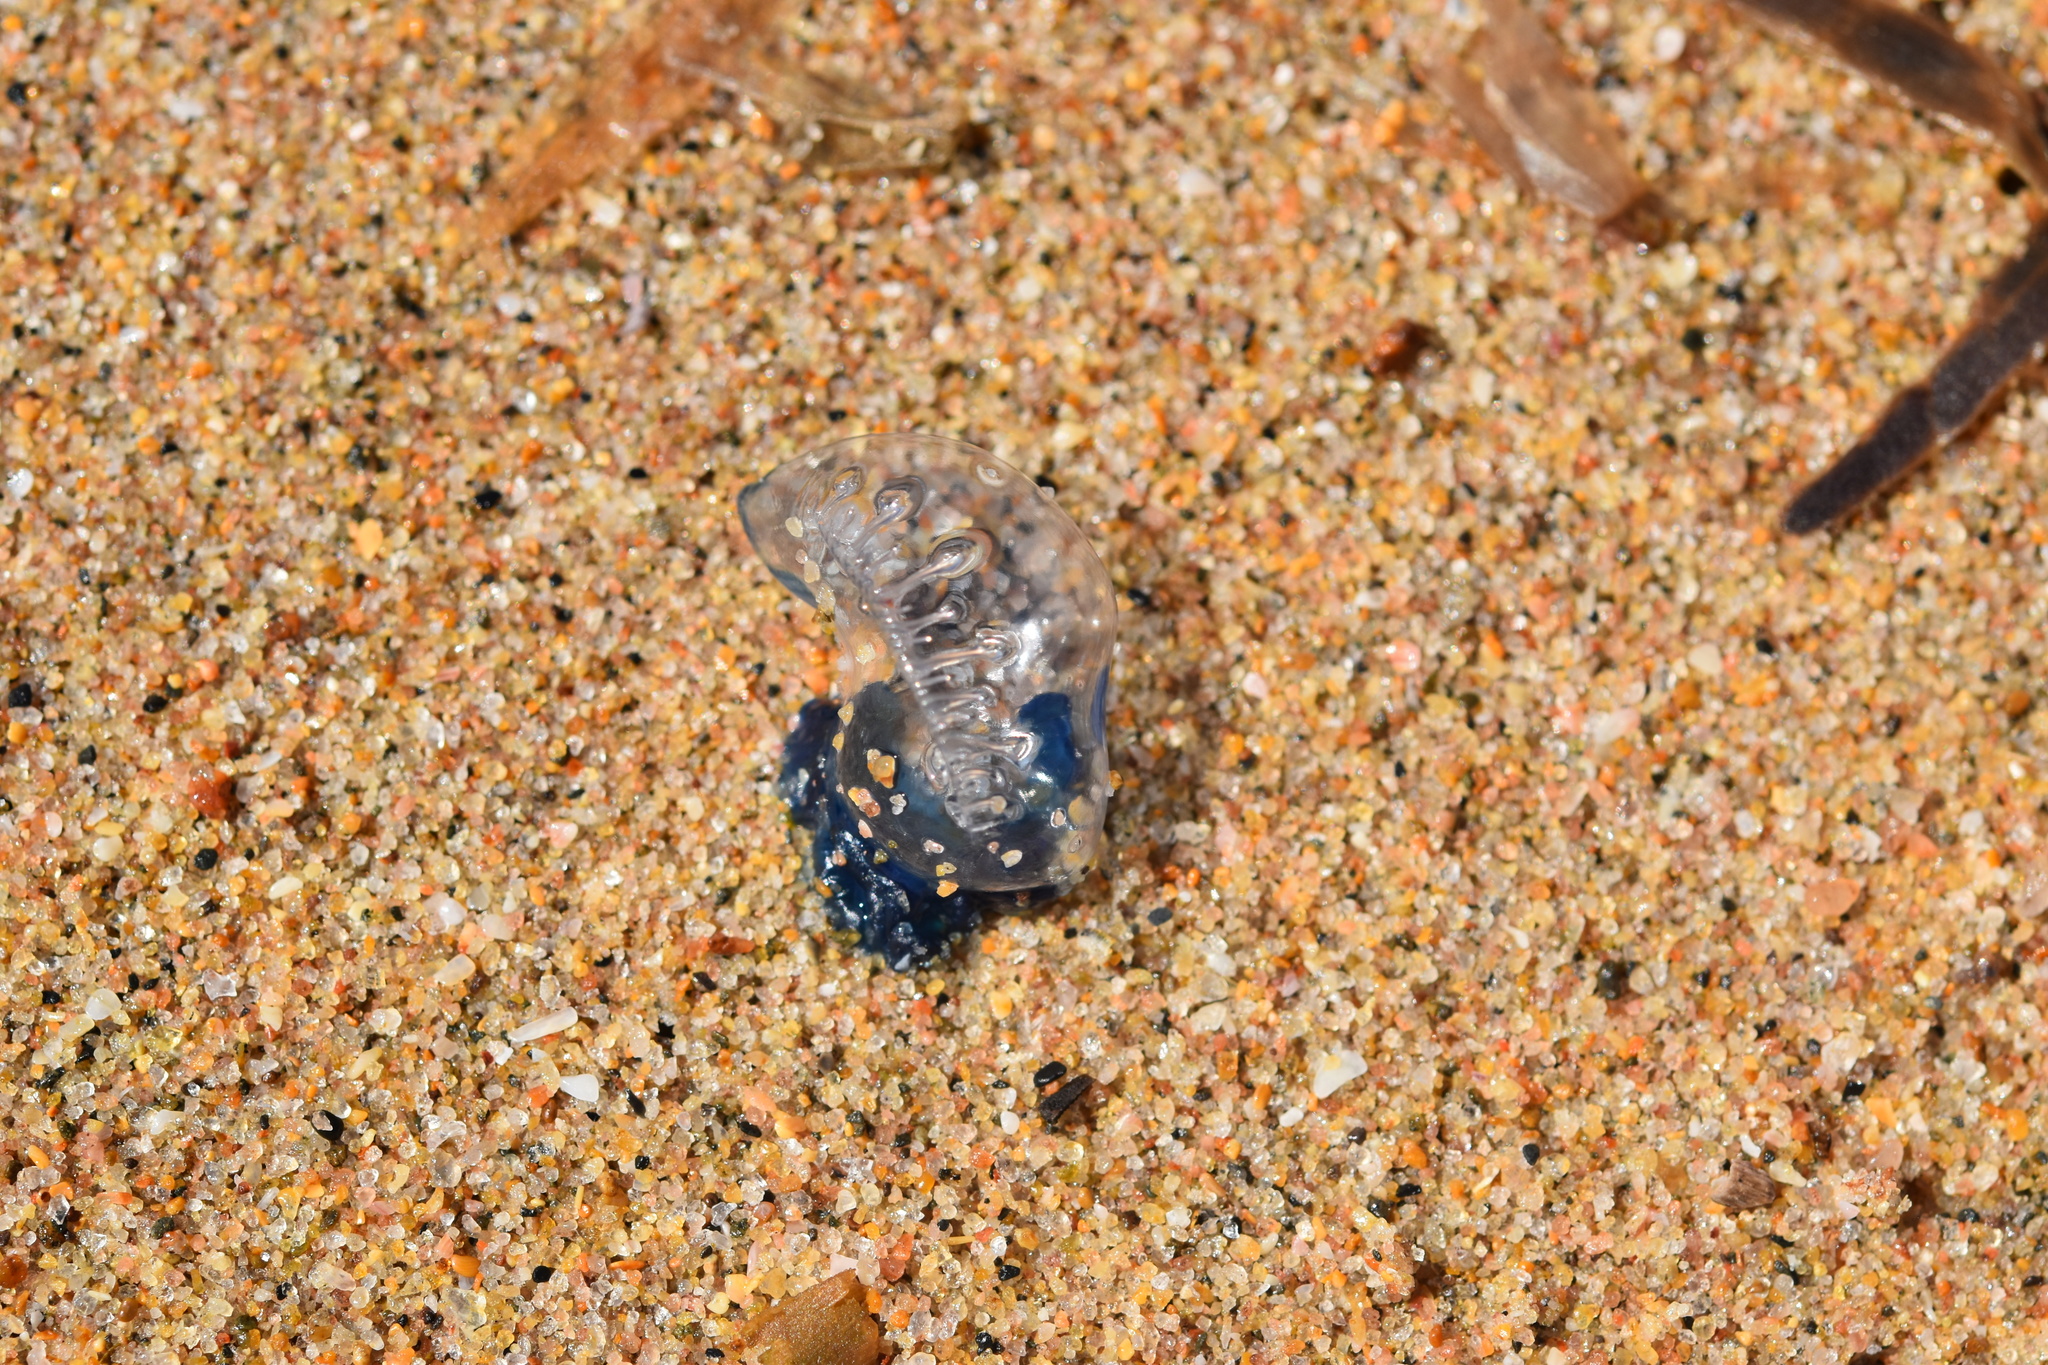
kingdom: Animalia
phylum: Cnidaria
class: Hydrozoa
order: Siphonophorae
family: Physaliidae
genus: Physalia
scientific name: Physalia physalis
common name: Portuguese man-of-war
